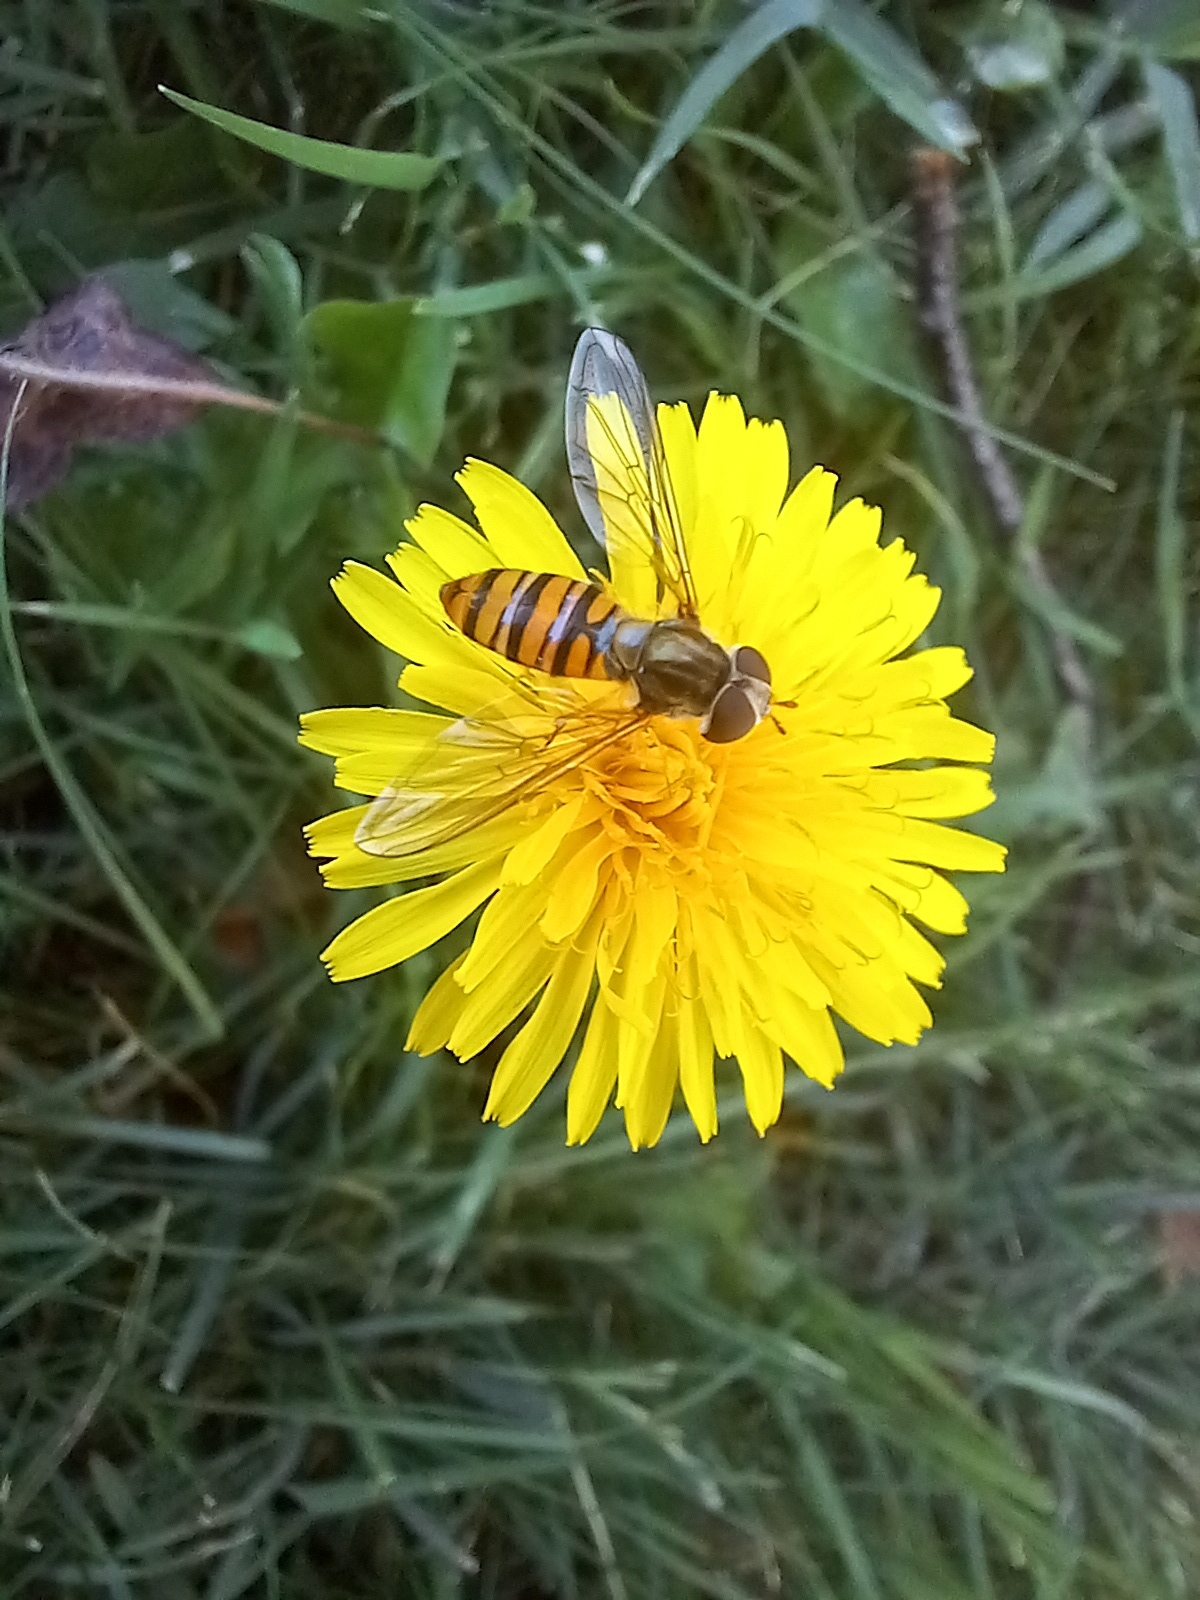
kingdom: Animalia
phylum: Arthropoda
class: Insecta
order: Diptera
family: Syrphidae
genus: Episyrphus
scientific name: Episyrphus balteatus
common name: Marmalade hoverfly
